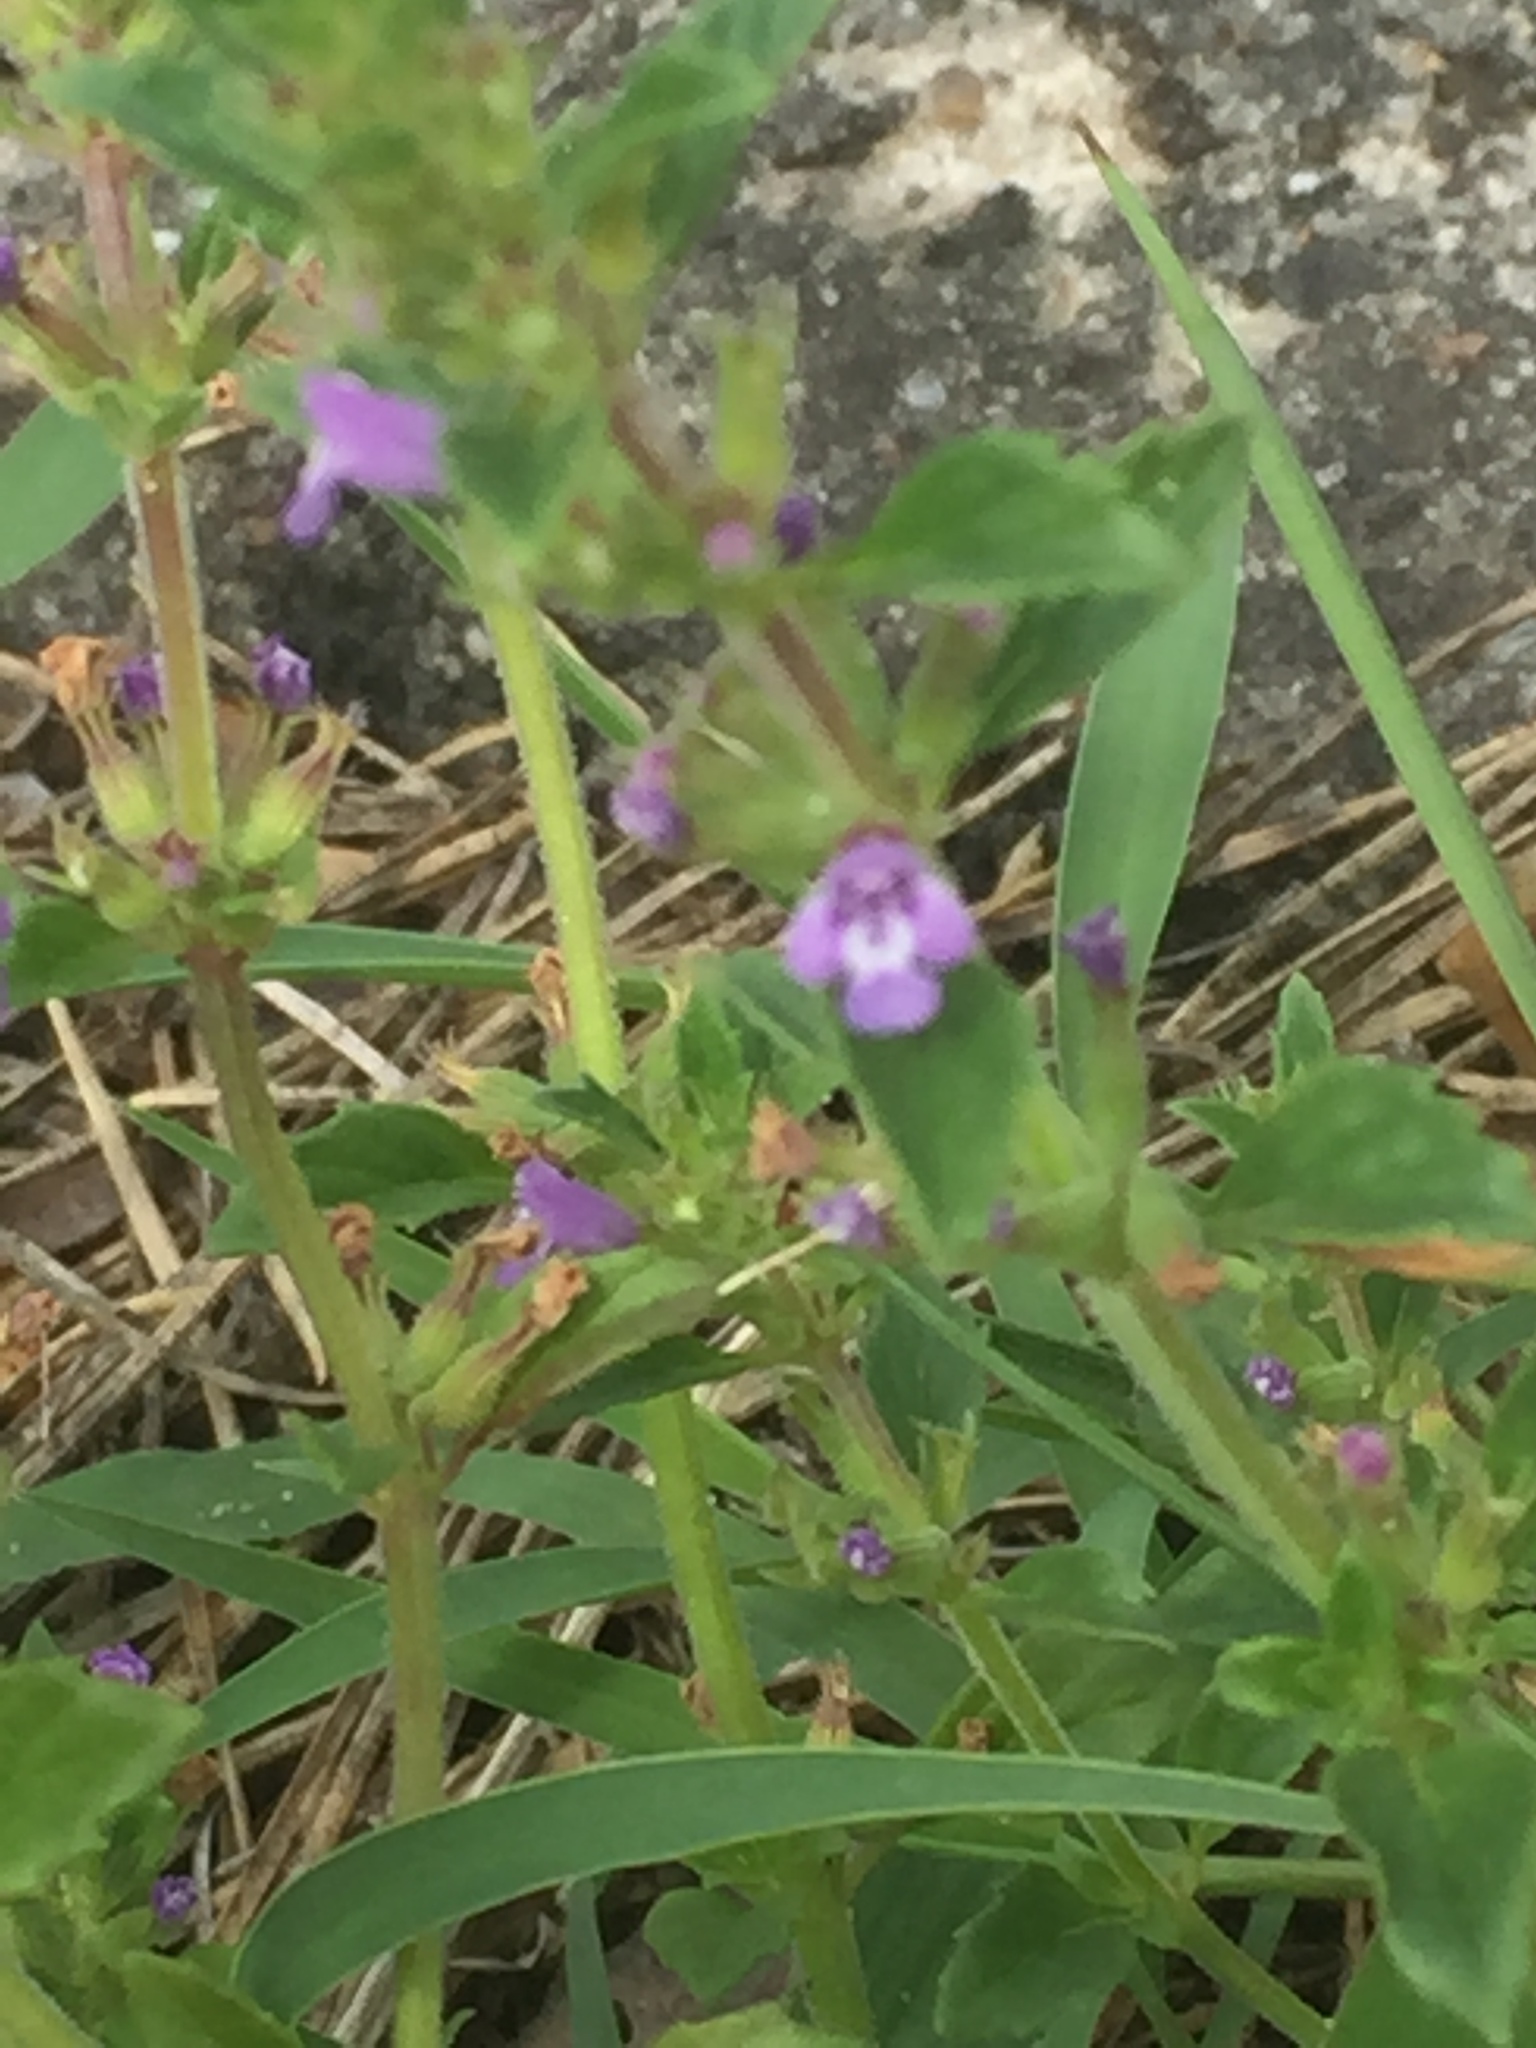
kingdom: Plantae
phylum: Tracheophyta
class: Magnoliopsida
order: Lamiales
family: Lamiaceae
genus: Clinopodium
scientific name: Clinopodium acinos
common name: Basil thyme
